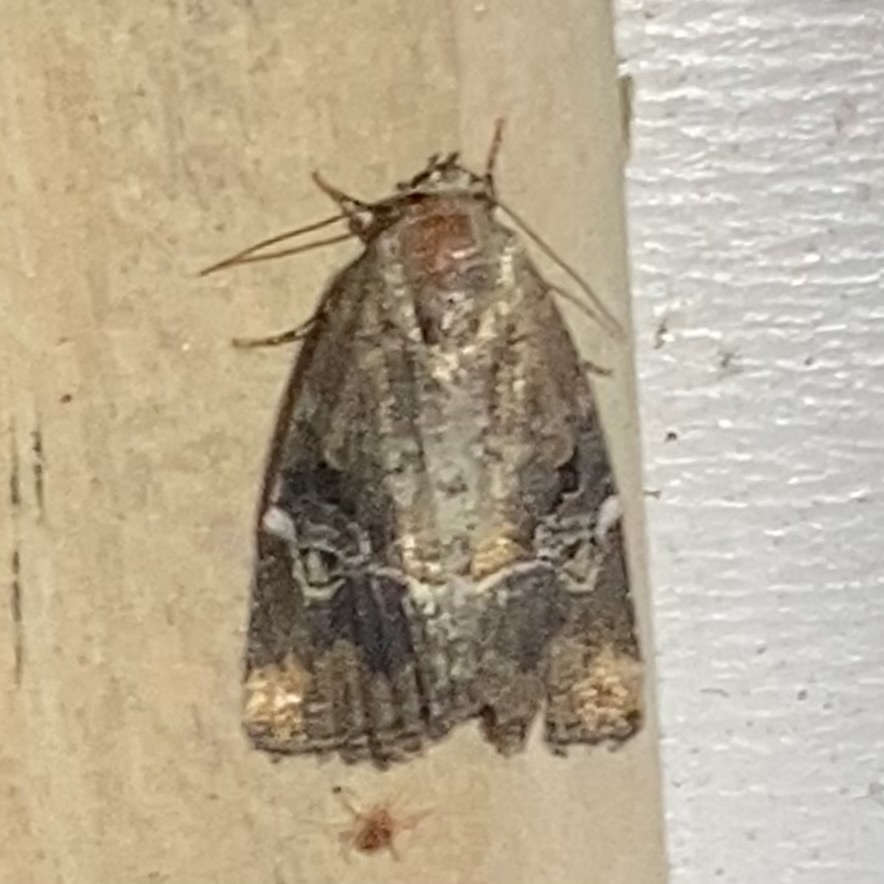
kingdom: Animalia
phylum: Arthropoda
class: Insecta
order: Lepidoptera
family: Noctuidae
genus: Elaphria
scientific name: Elaphria versicolor
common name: Fir harlequin
